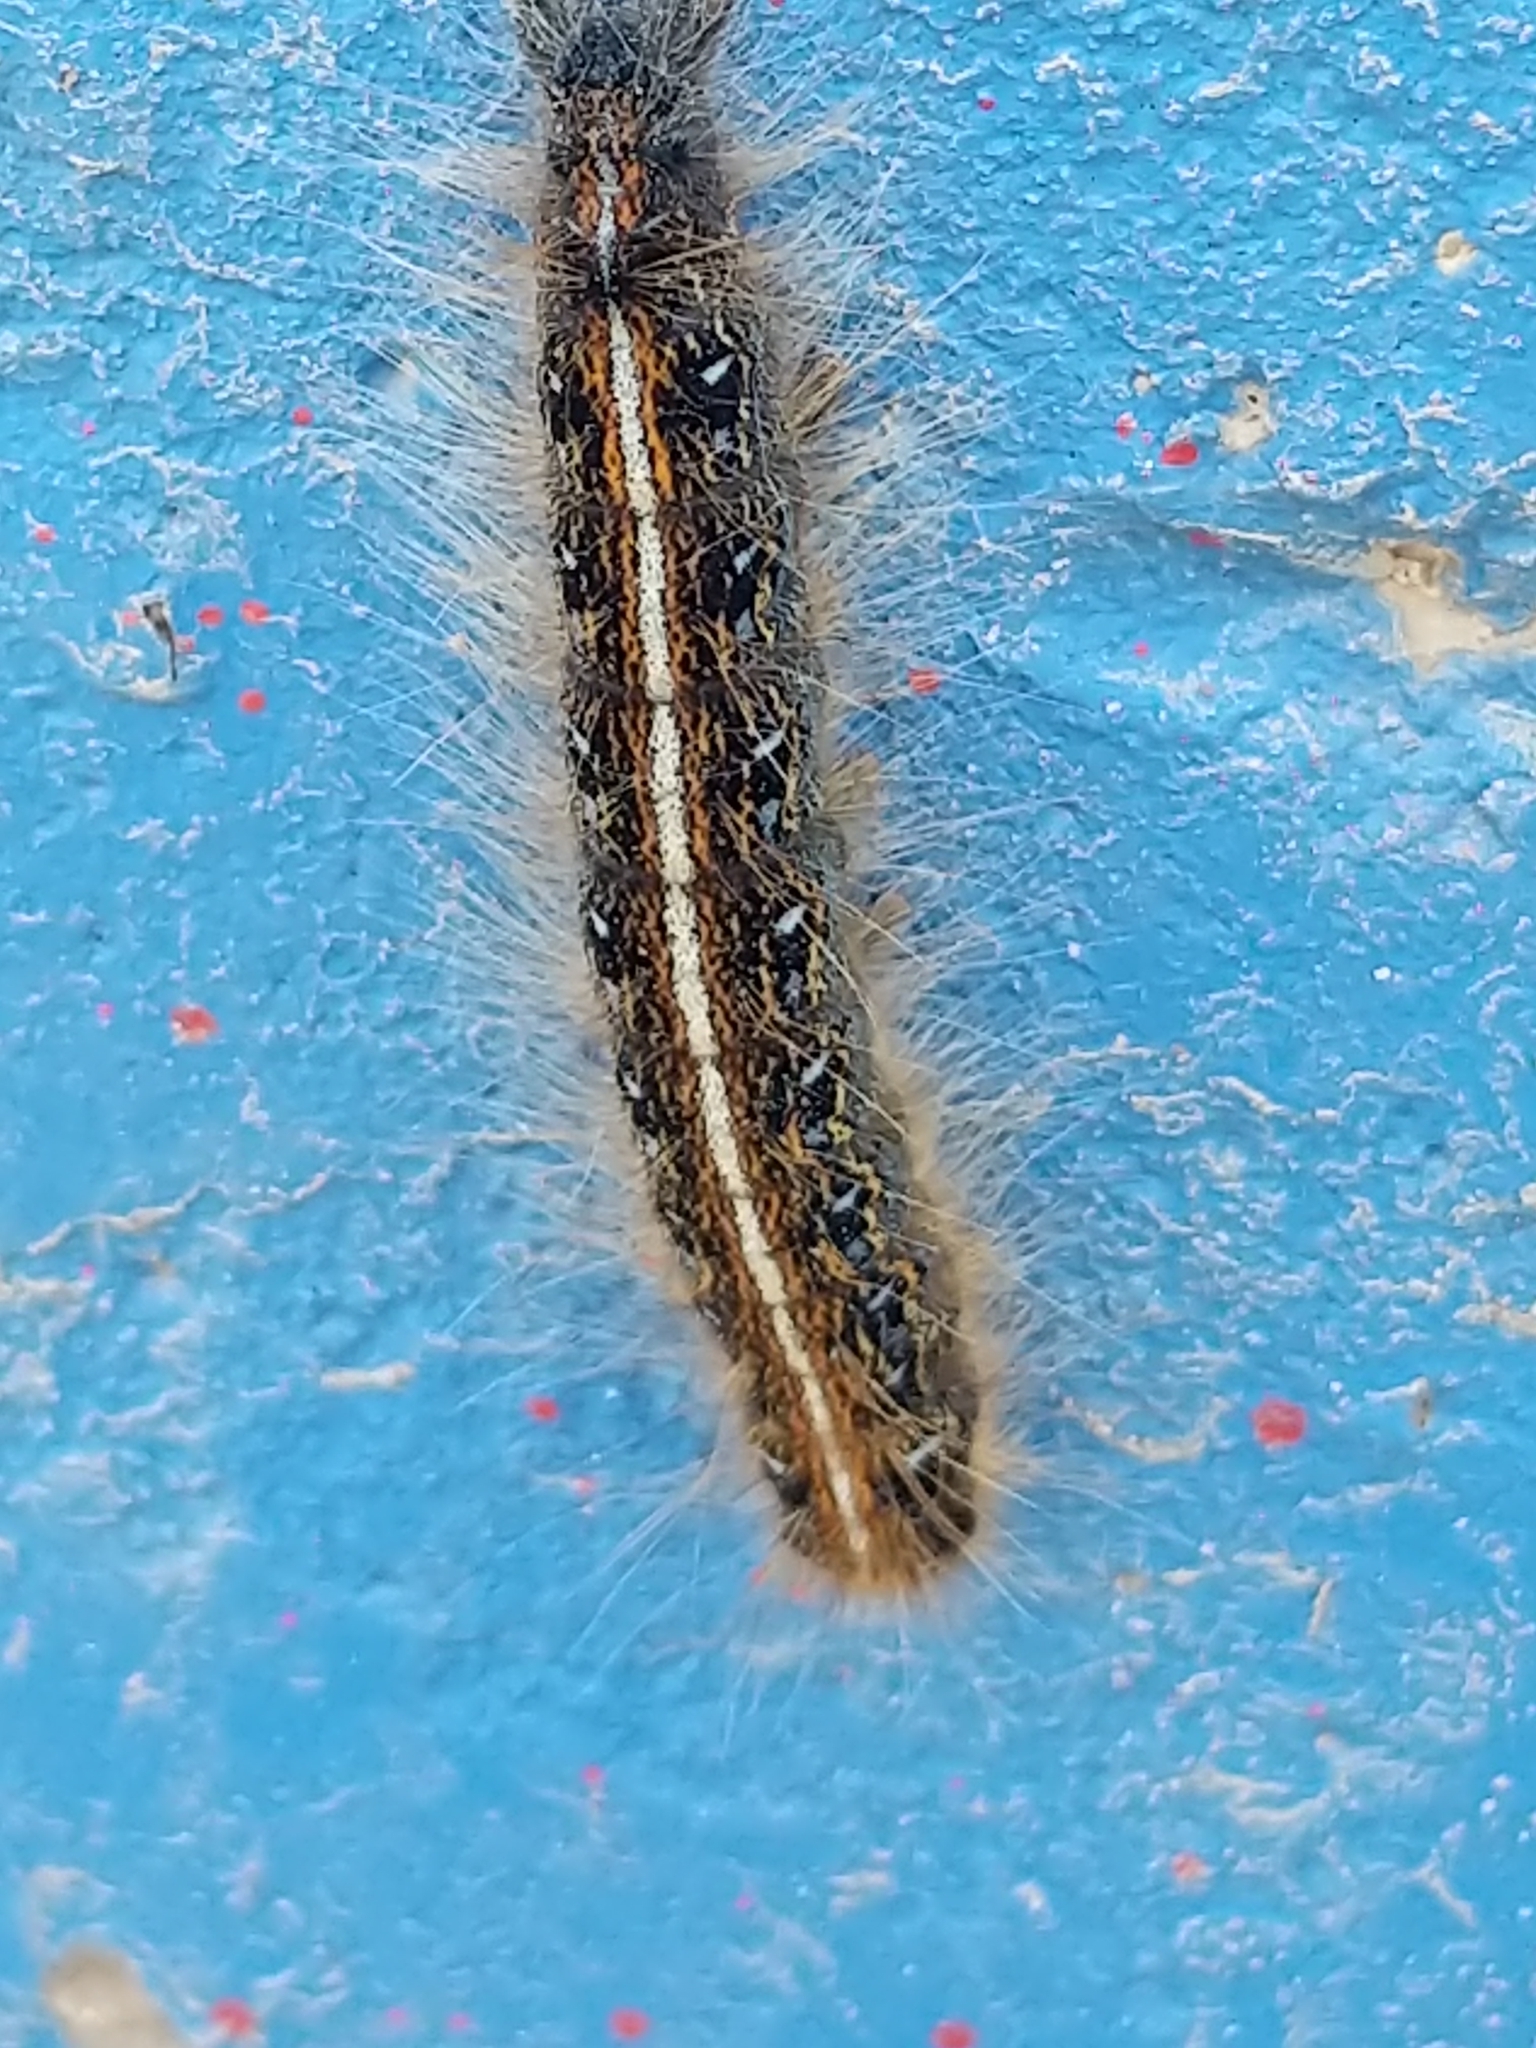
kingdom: Animalia
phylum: Arthropoda
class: Insecta
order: Lepidoptera
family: Lasiocampidae
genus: Malacosoma
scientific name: Malacosoma americana
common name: Eastern tent caterpillar moth
